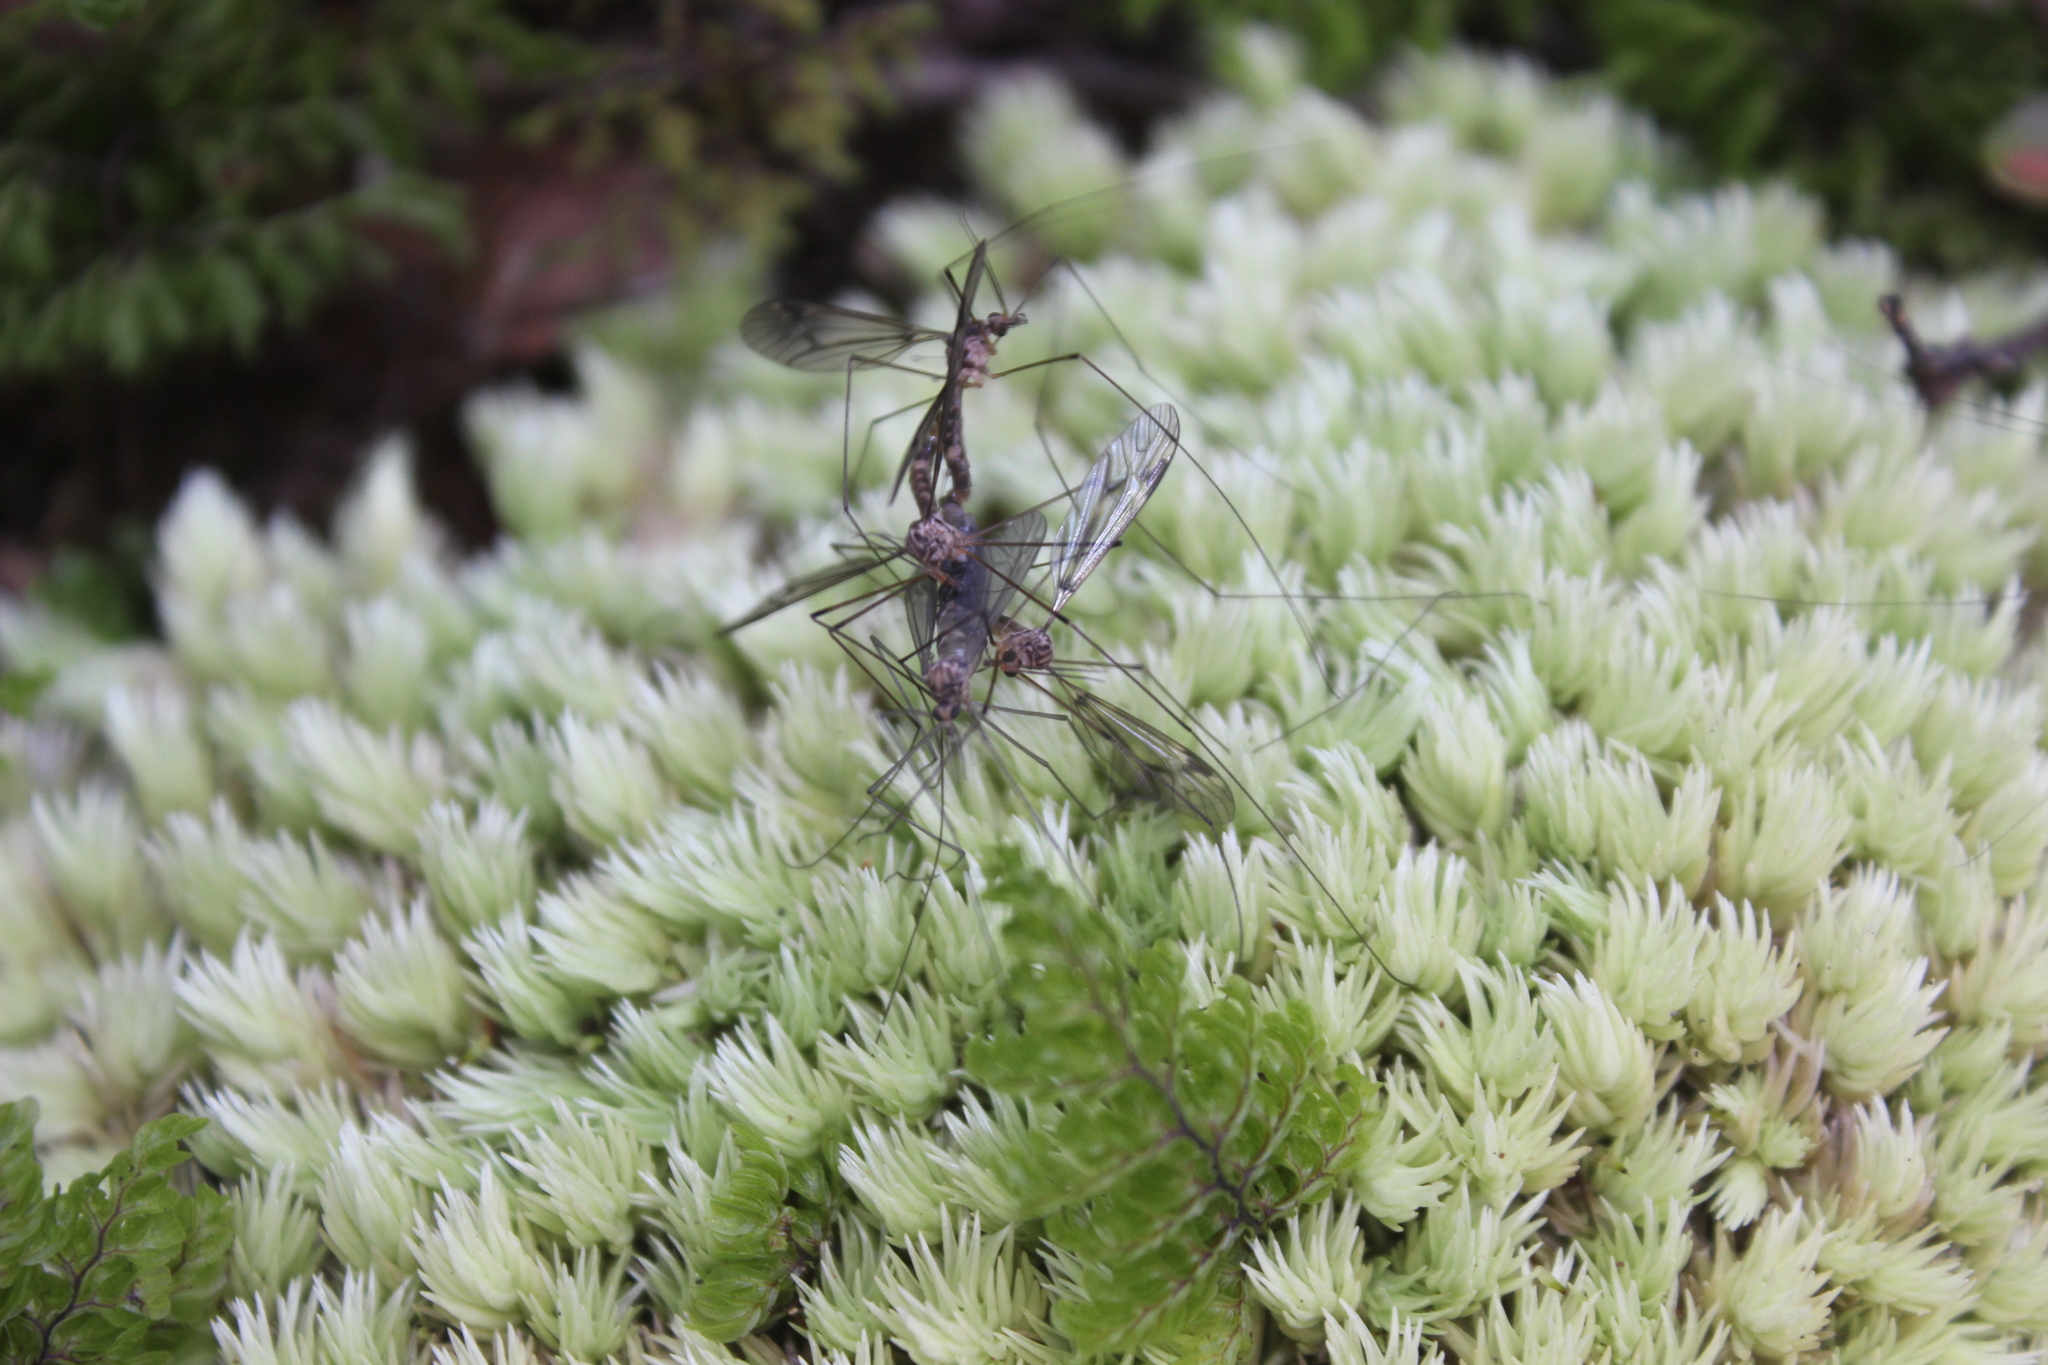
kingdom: Animalia
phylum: Arthropoda
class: Insecta
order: Diptera
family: Tipulidae
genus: Leptotarsus
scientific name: Leptotarsus cubitalis
